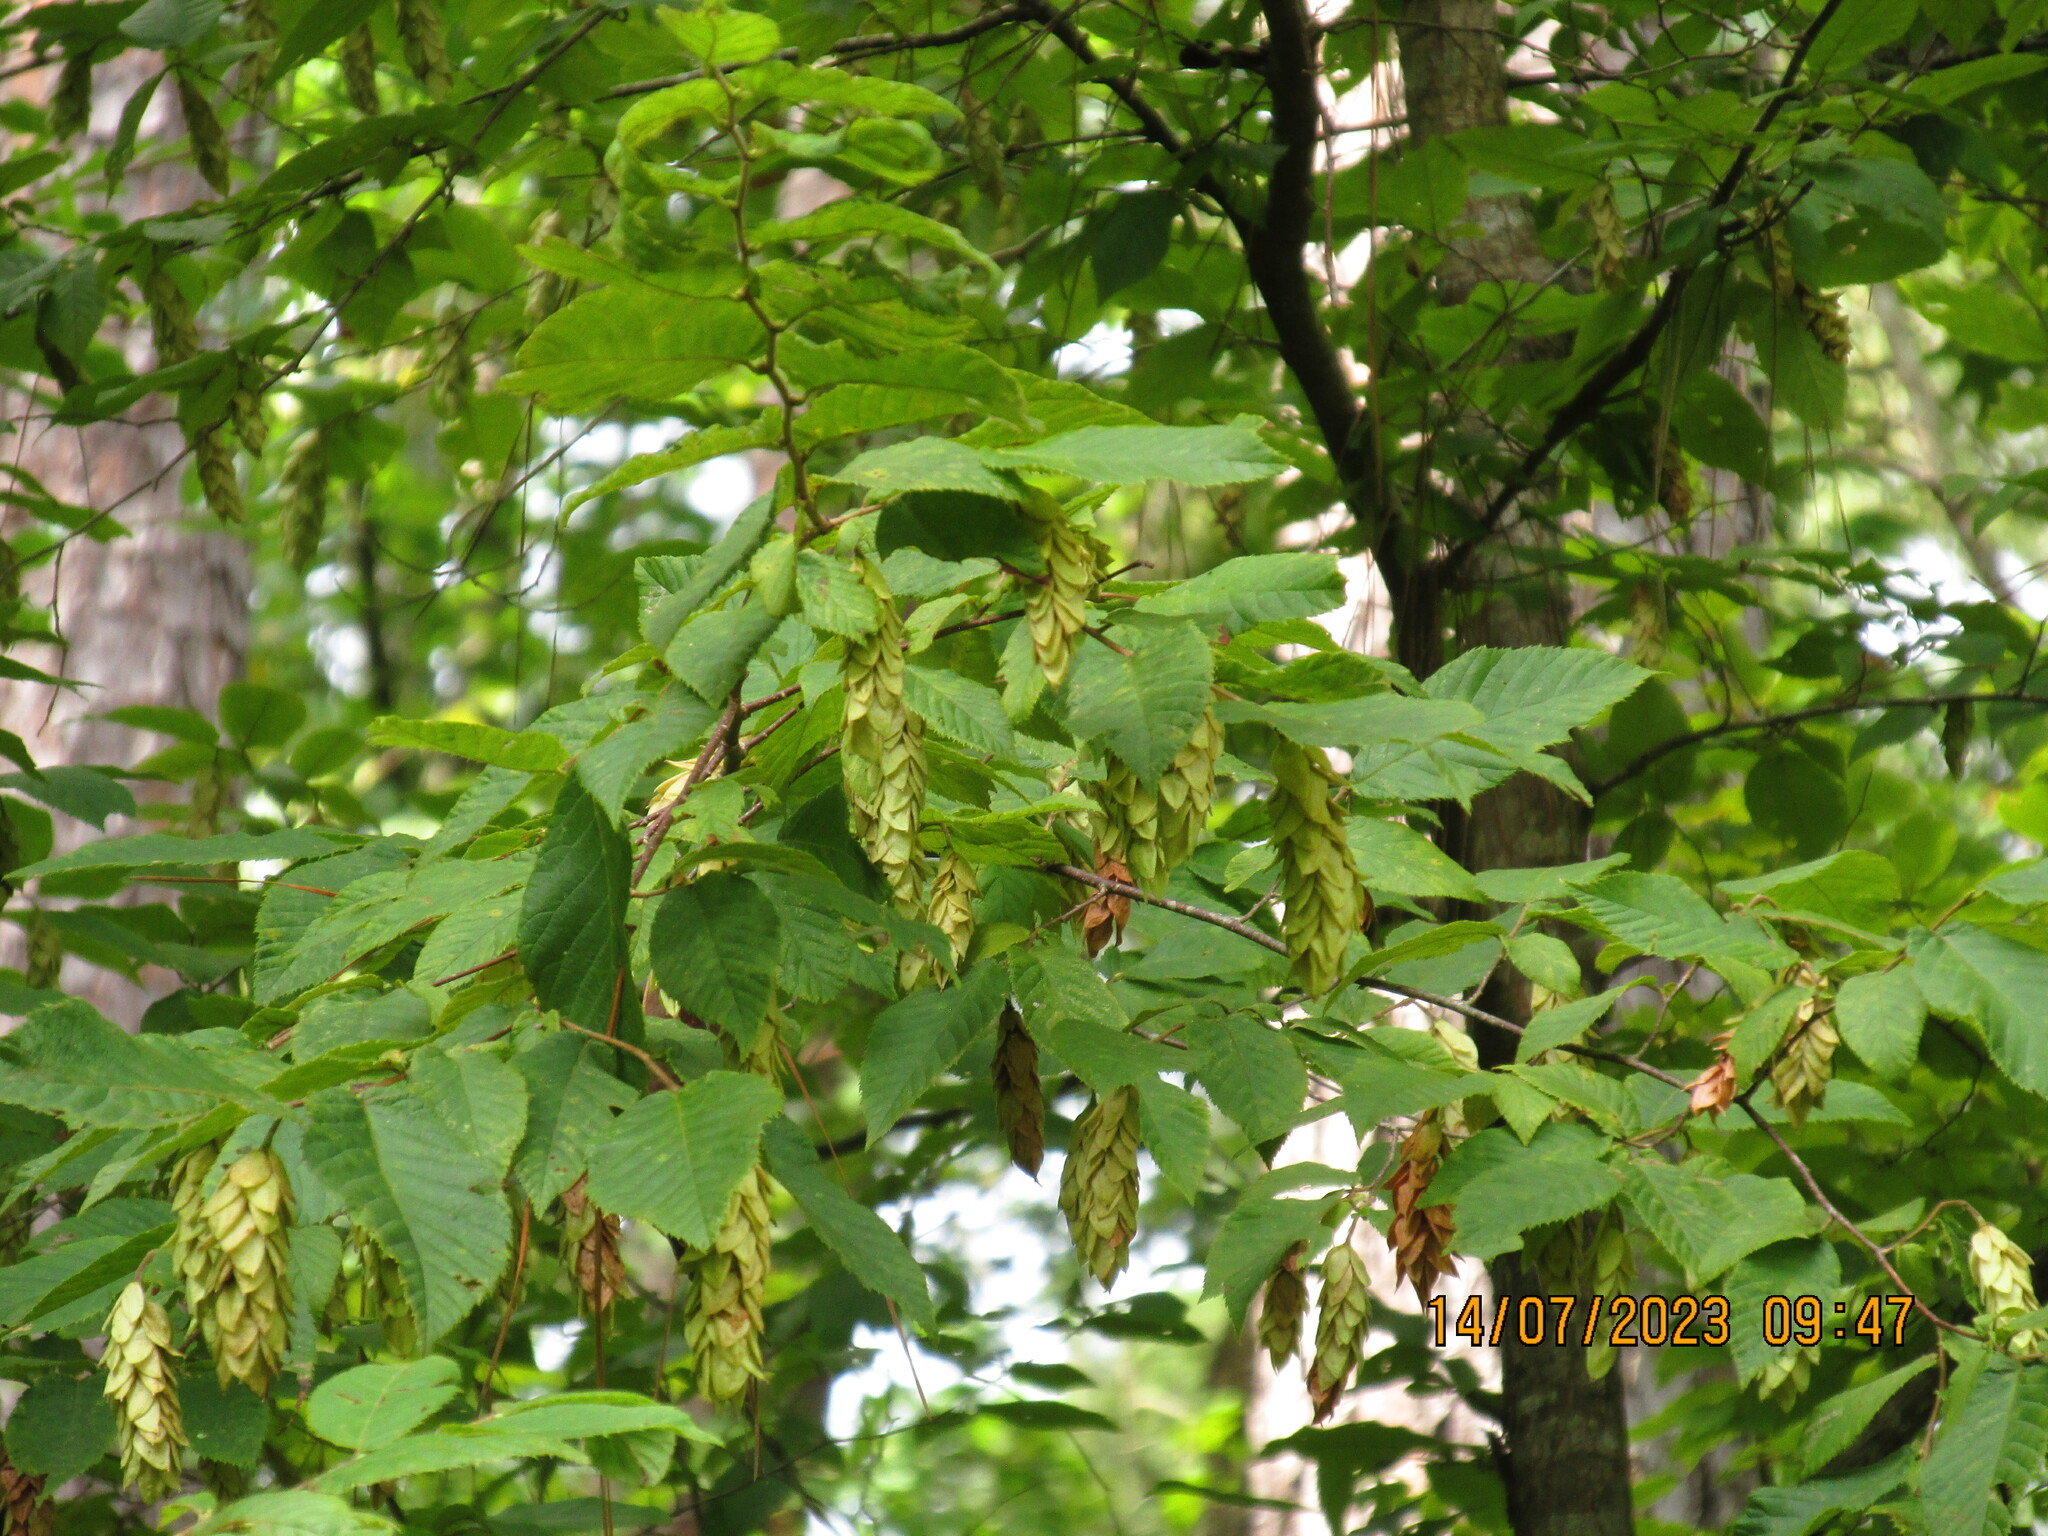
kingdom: Plantae
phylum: Tracheophyta
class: Magnoliopsida
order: Fagales
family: Betulaceae
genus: Ostrya
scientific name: Ostrya virginiana
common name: Ironwood
